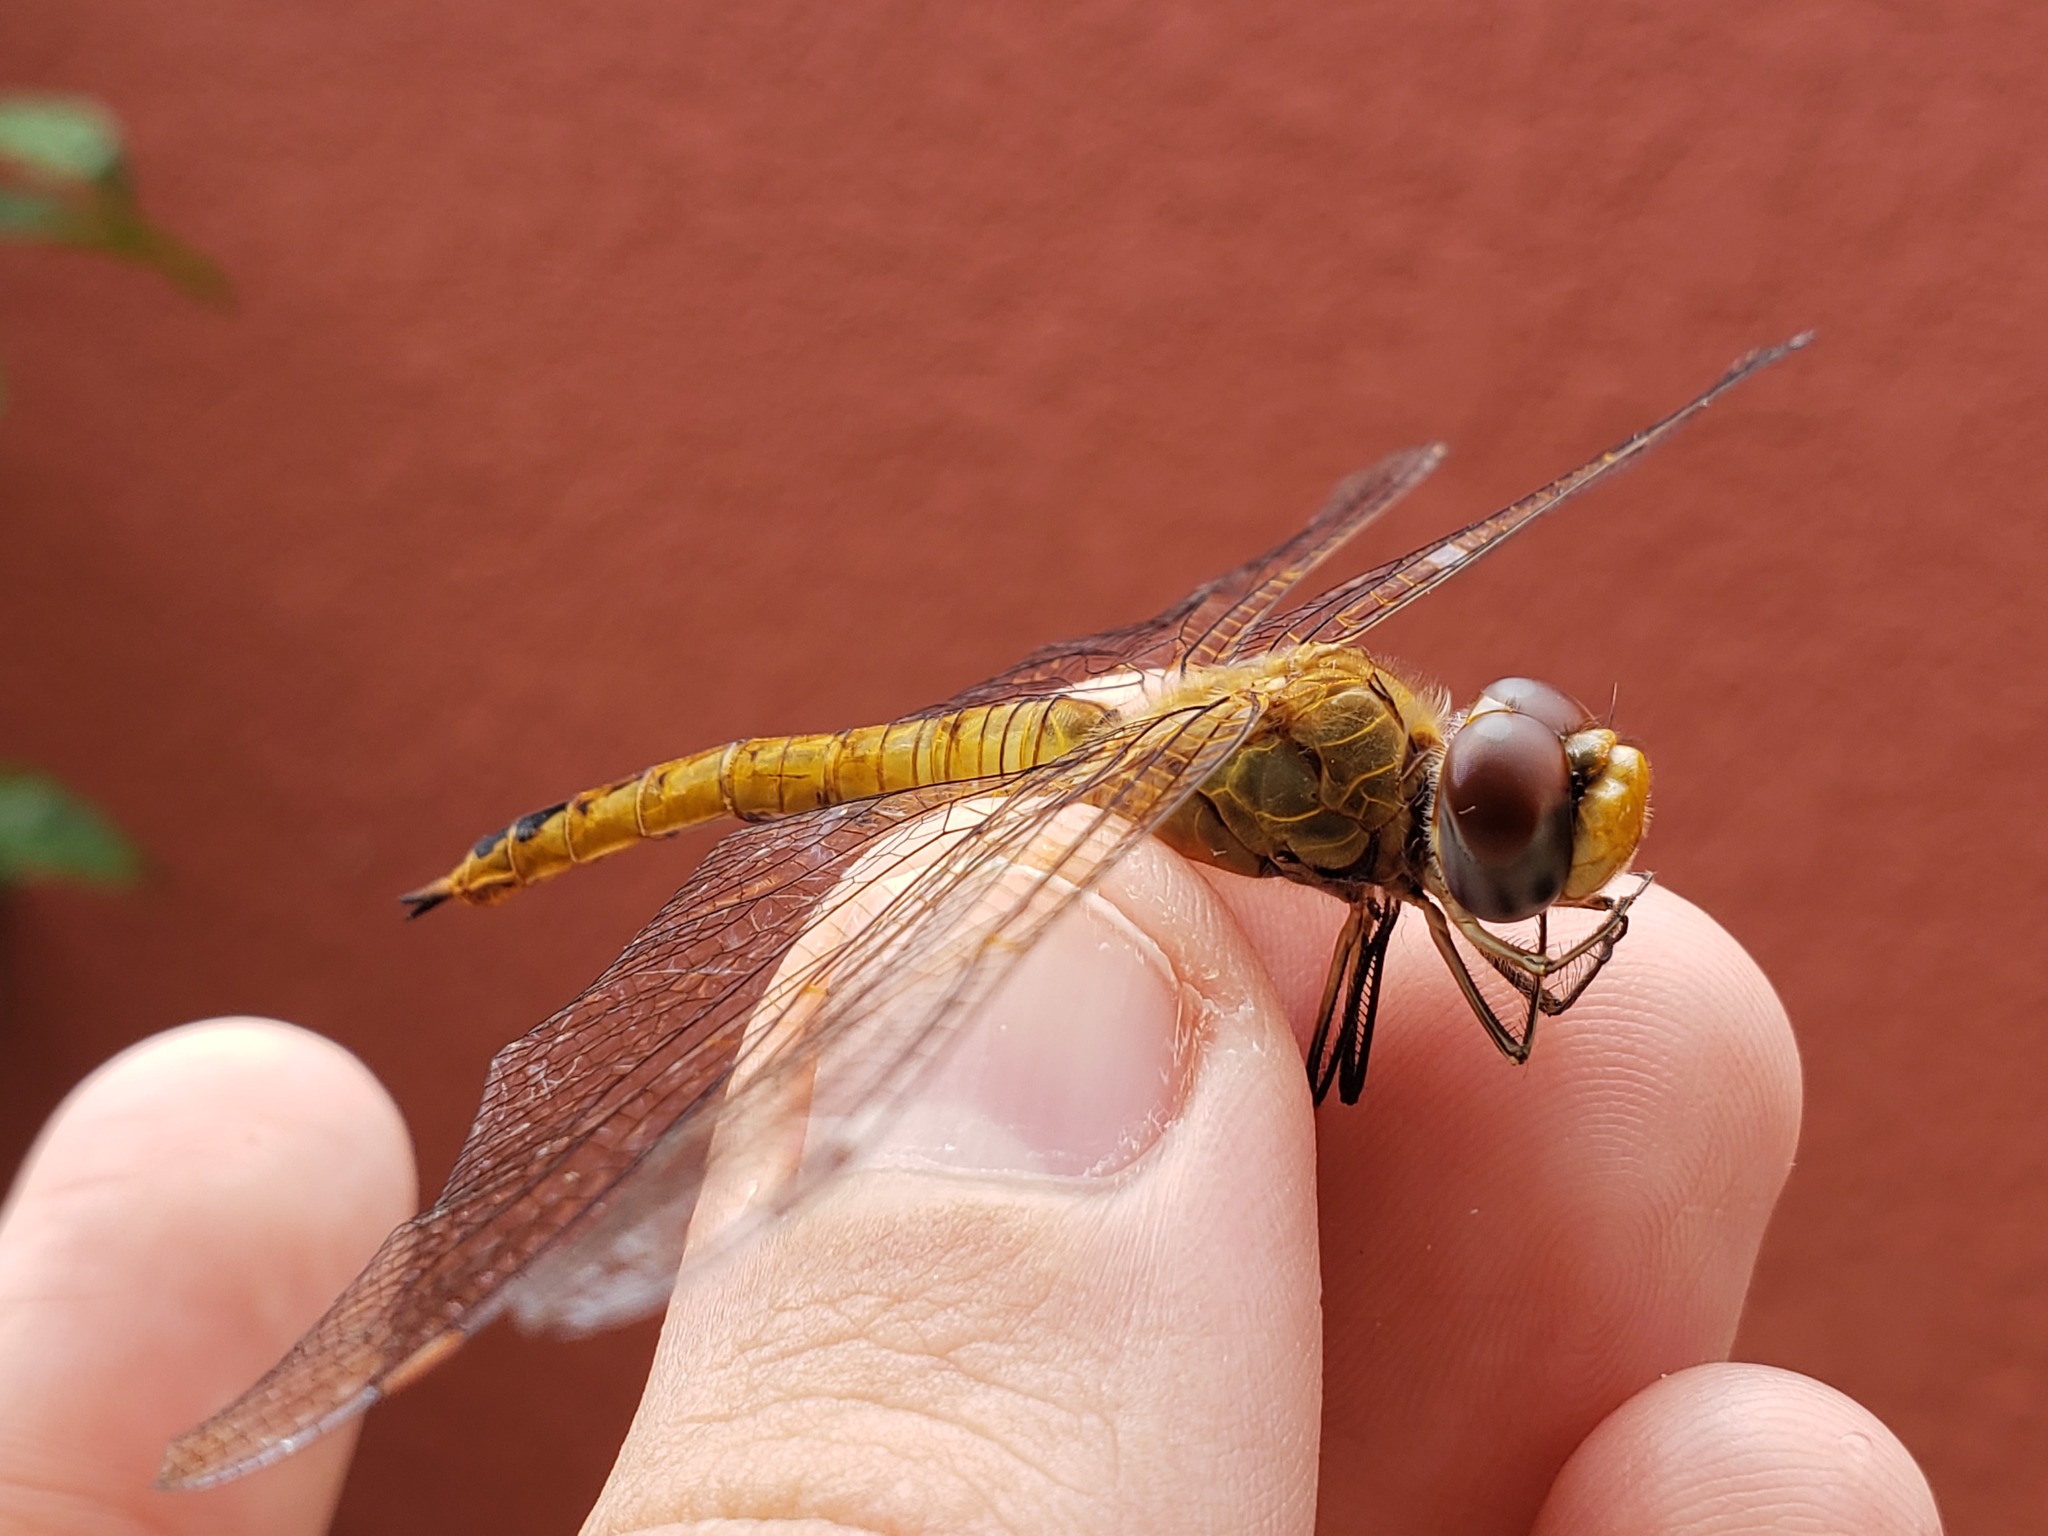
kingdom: Animalia
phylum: Arthropoda
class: Insecta
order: Odonata
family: Libellulidae
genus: Pantala
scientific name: Pantala flavescens
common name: Wandering glider
